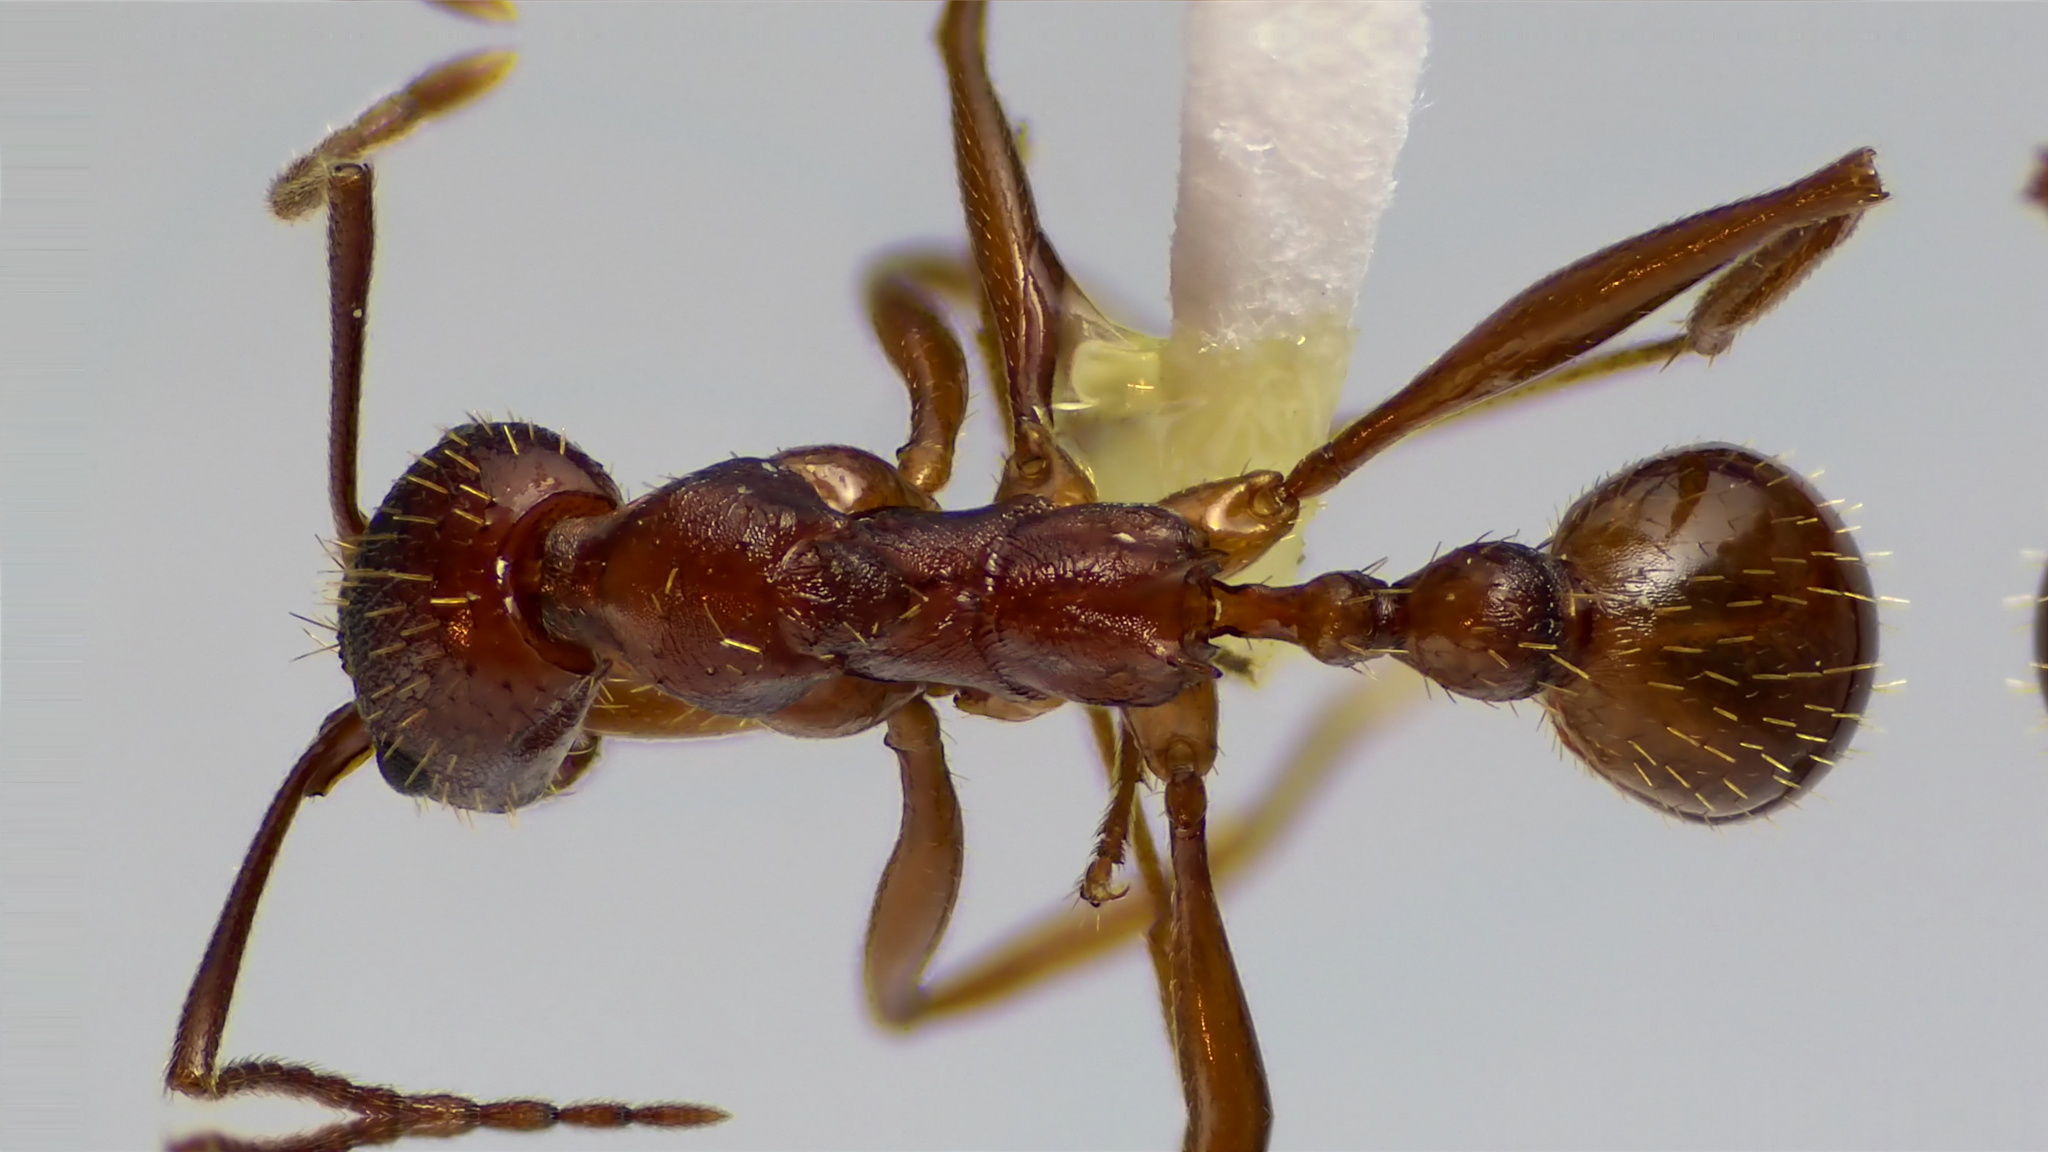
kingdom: Animalia
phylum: Arthropoda
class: Insecta
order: Hymenoptera
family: Formicidae
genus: Aphaenogaster
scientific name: Aphaenogaster treatae
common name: Treat's collared ant
